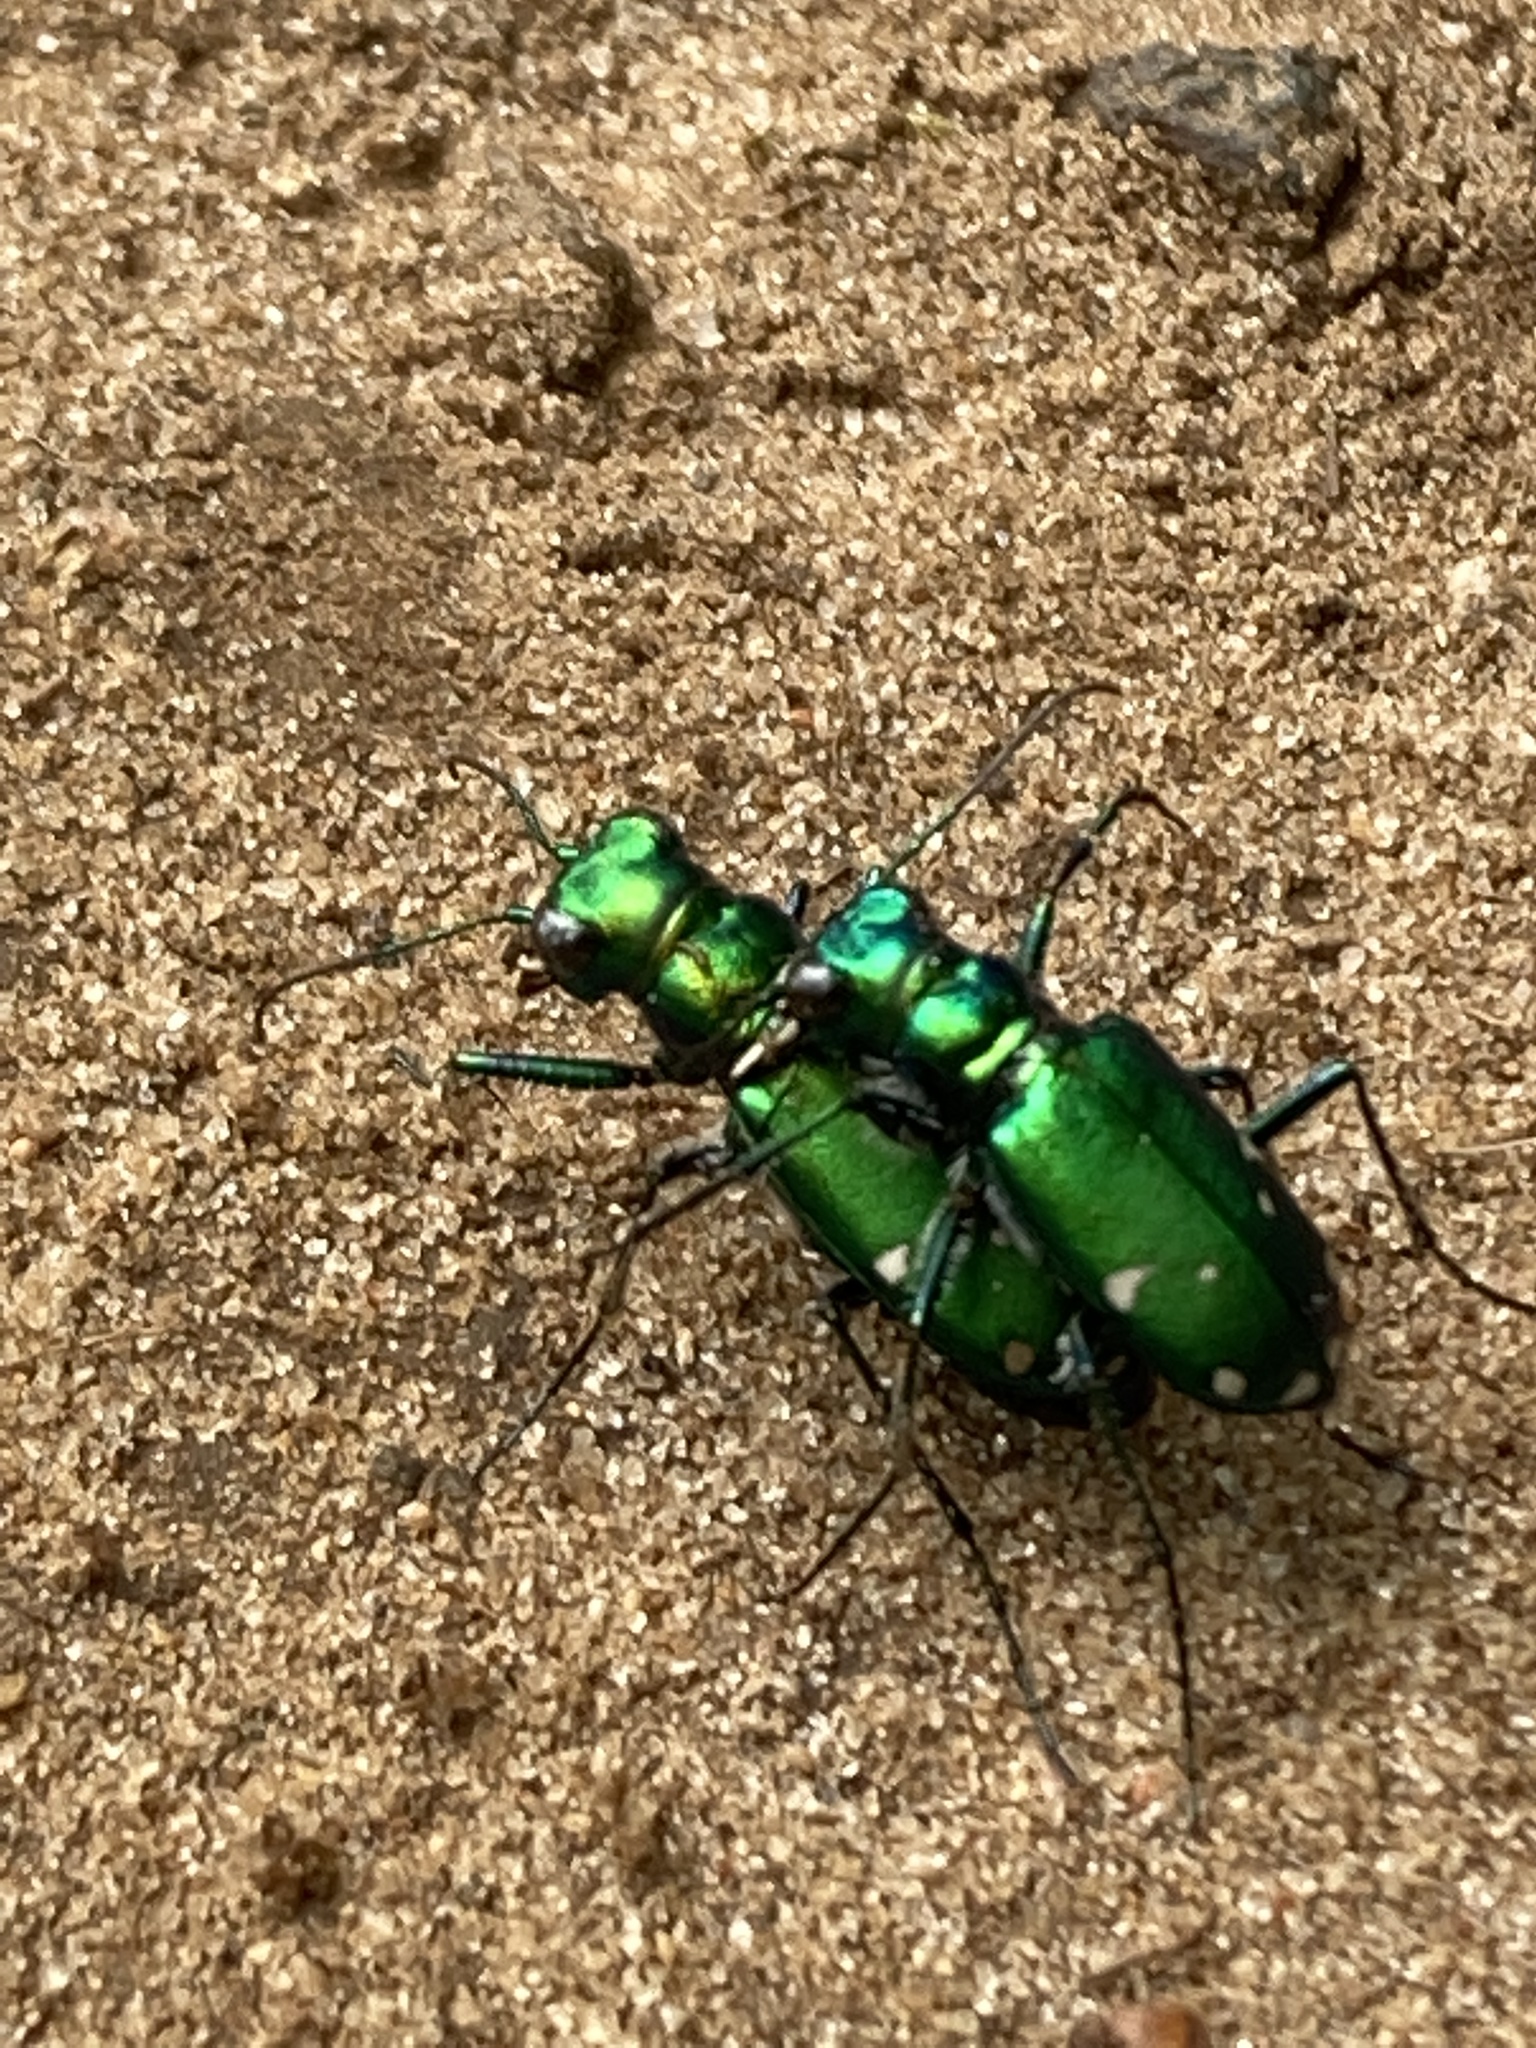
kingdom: Animalia
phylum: Arthropoda
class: Insecta
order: Coleoptera
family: Carabidae
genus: Cicindela
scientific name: Cicindela sexguttata
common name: Six-spotted tiger beetle
